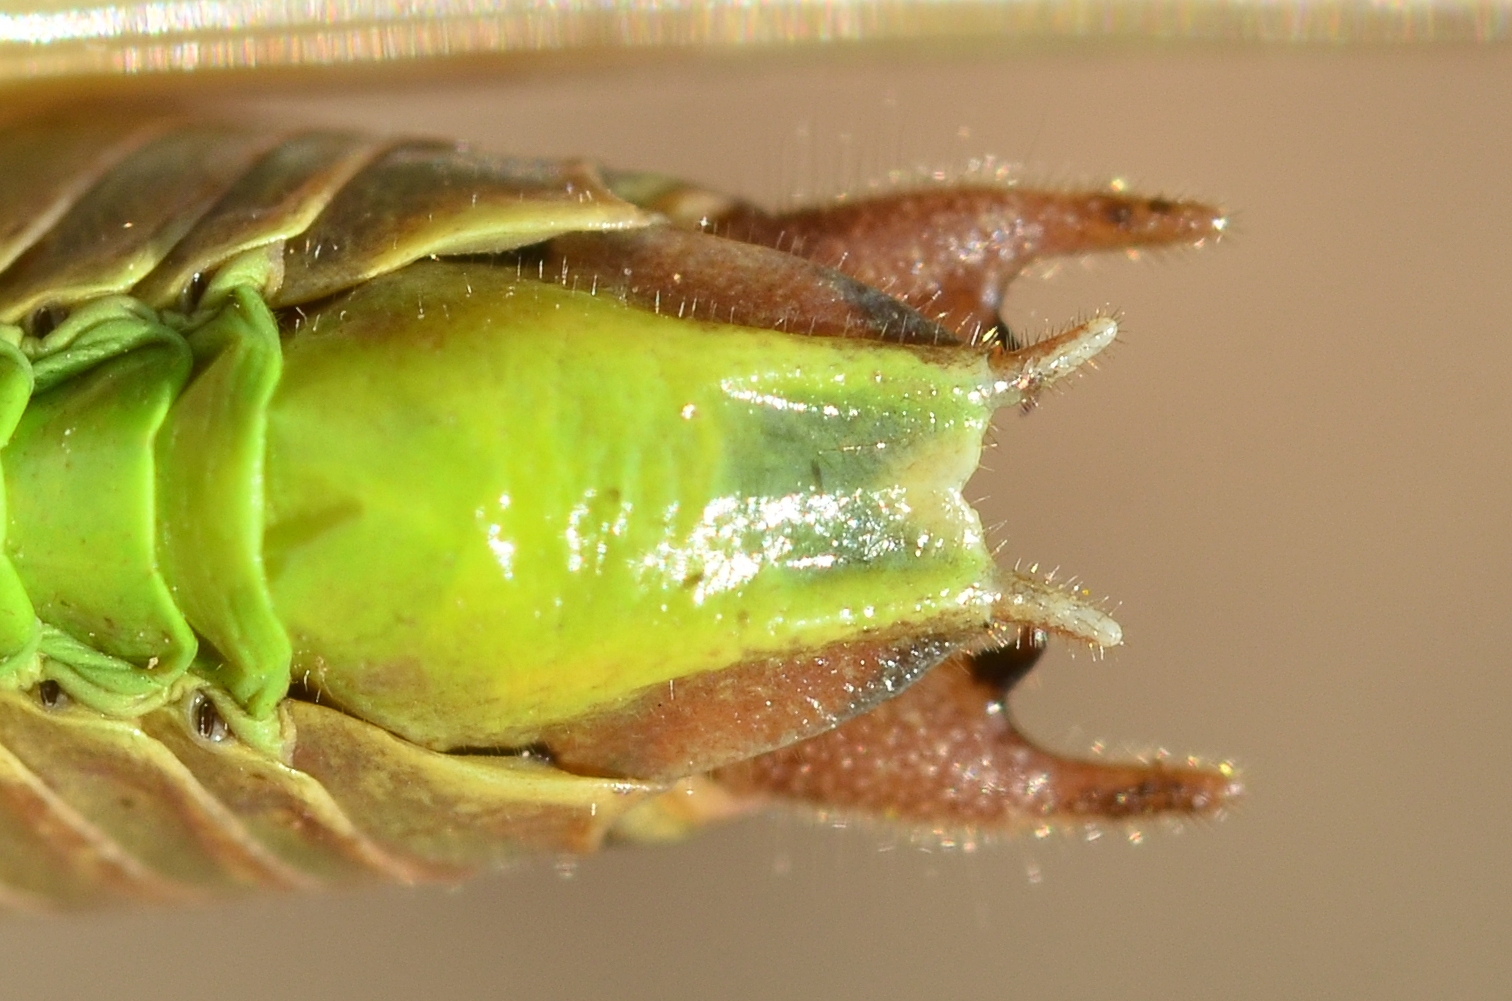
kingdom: Animalia
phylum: Arthropoda
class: Insecta
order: Orthoptera
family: Tettigoniidae
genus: Metrioptera
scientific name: Metrioptera saussuriana
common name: Purple meadow bush-cricket
